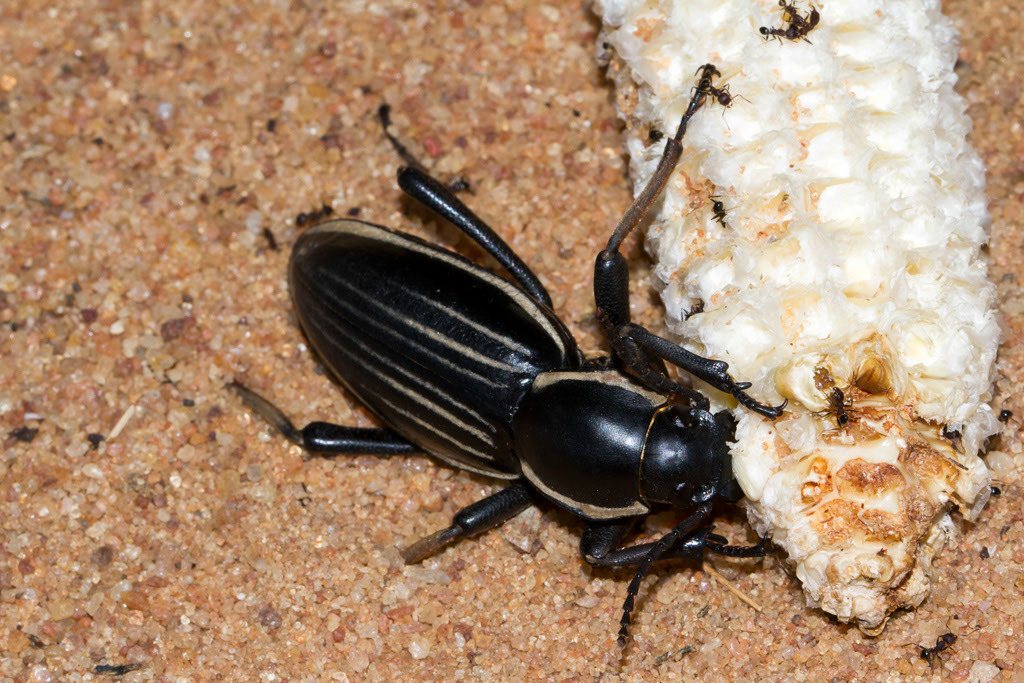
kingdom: Animalia
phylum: Arthropoda
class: Insecta
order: Coleoptera
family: Tenebrionidae
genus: Chiliarchum
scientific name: Chiliarchum
